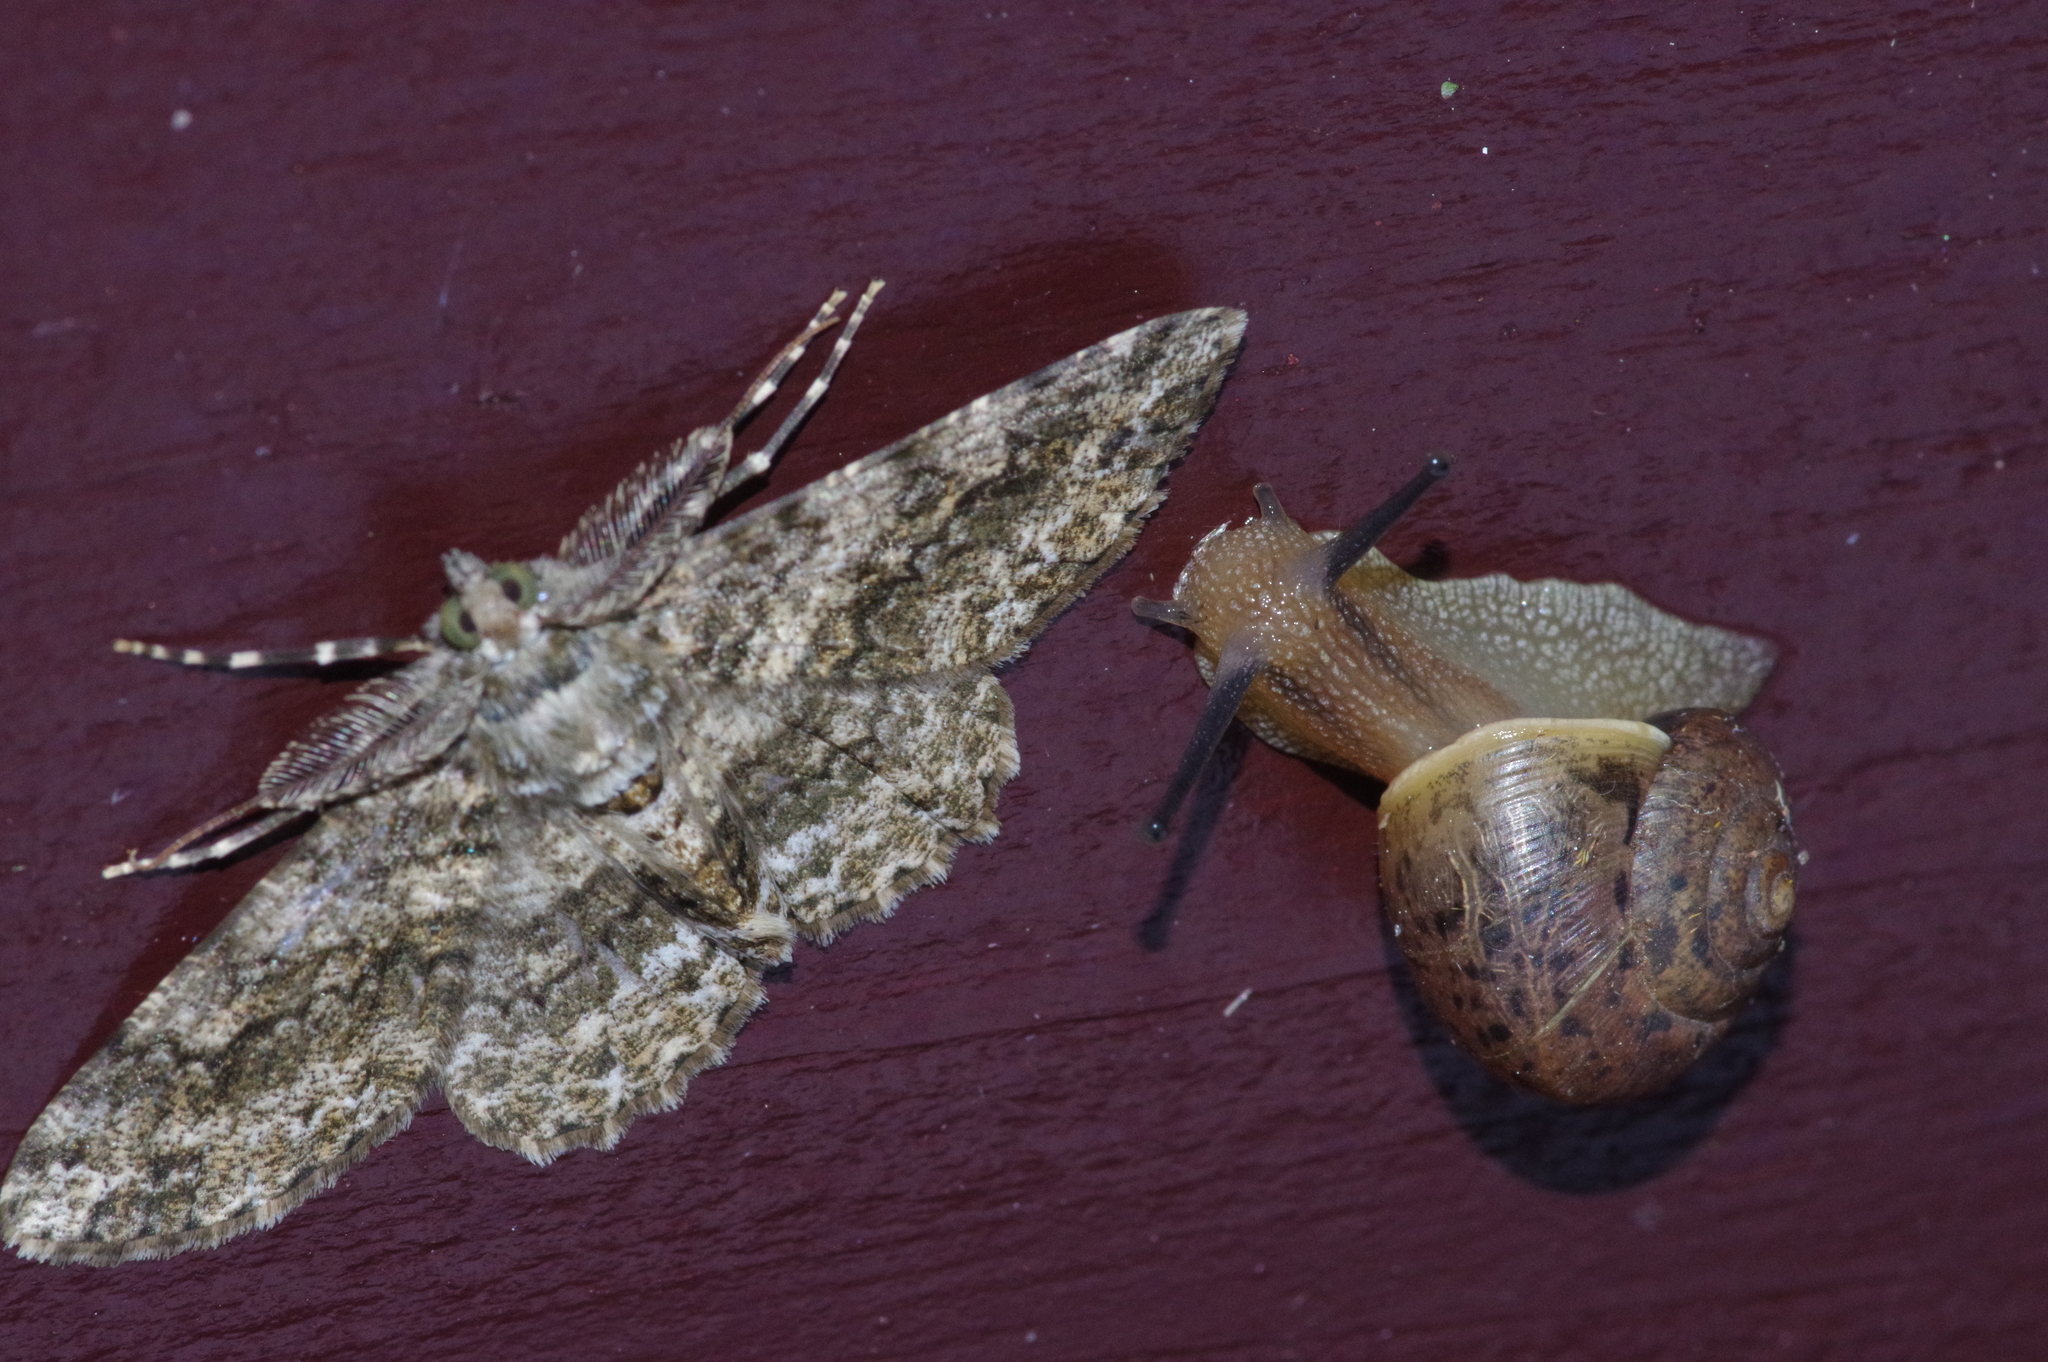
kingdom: Animalia
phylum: Mollusca
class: Gastropoda
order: Stylommatophora
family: Camaenidae
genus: Acusta
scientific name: Acusta despecta
